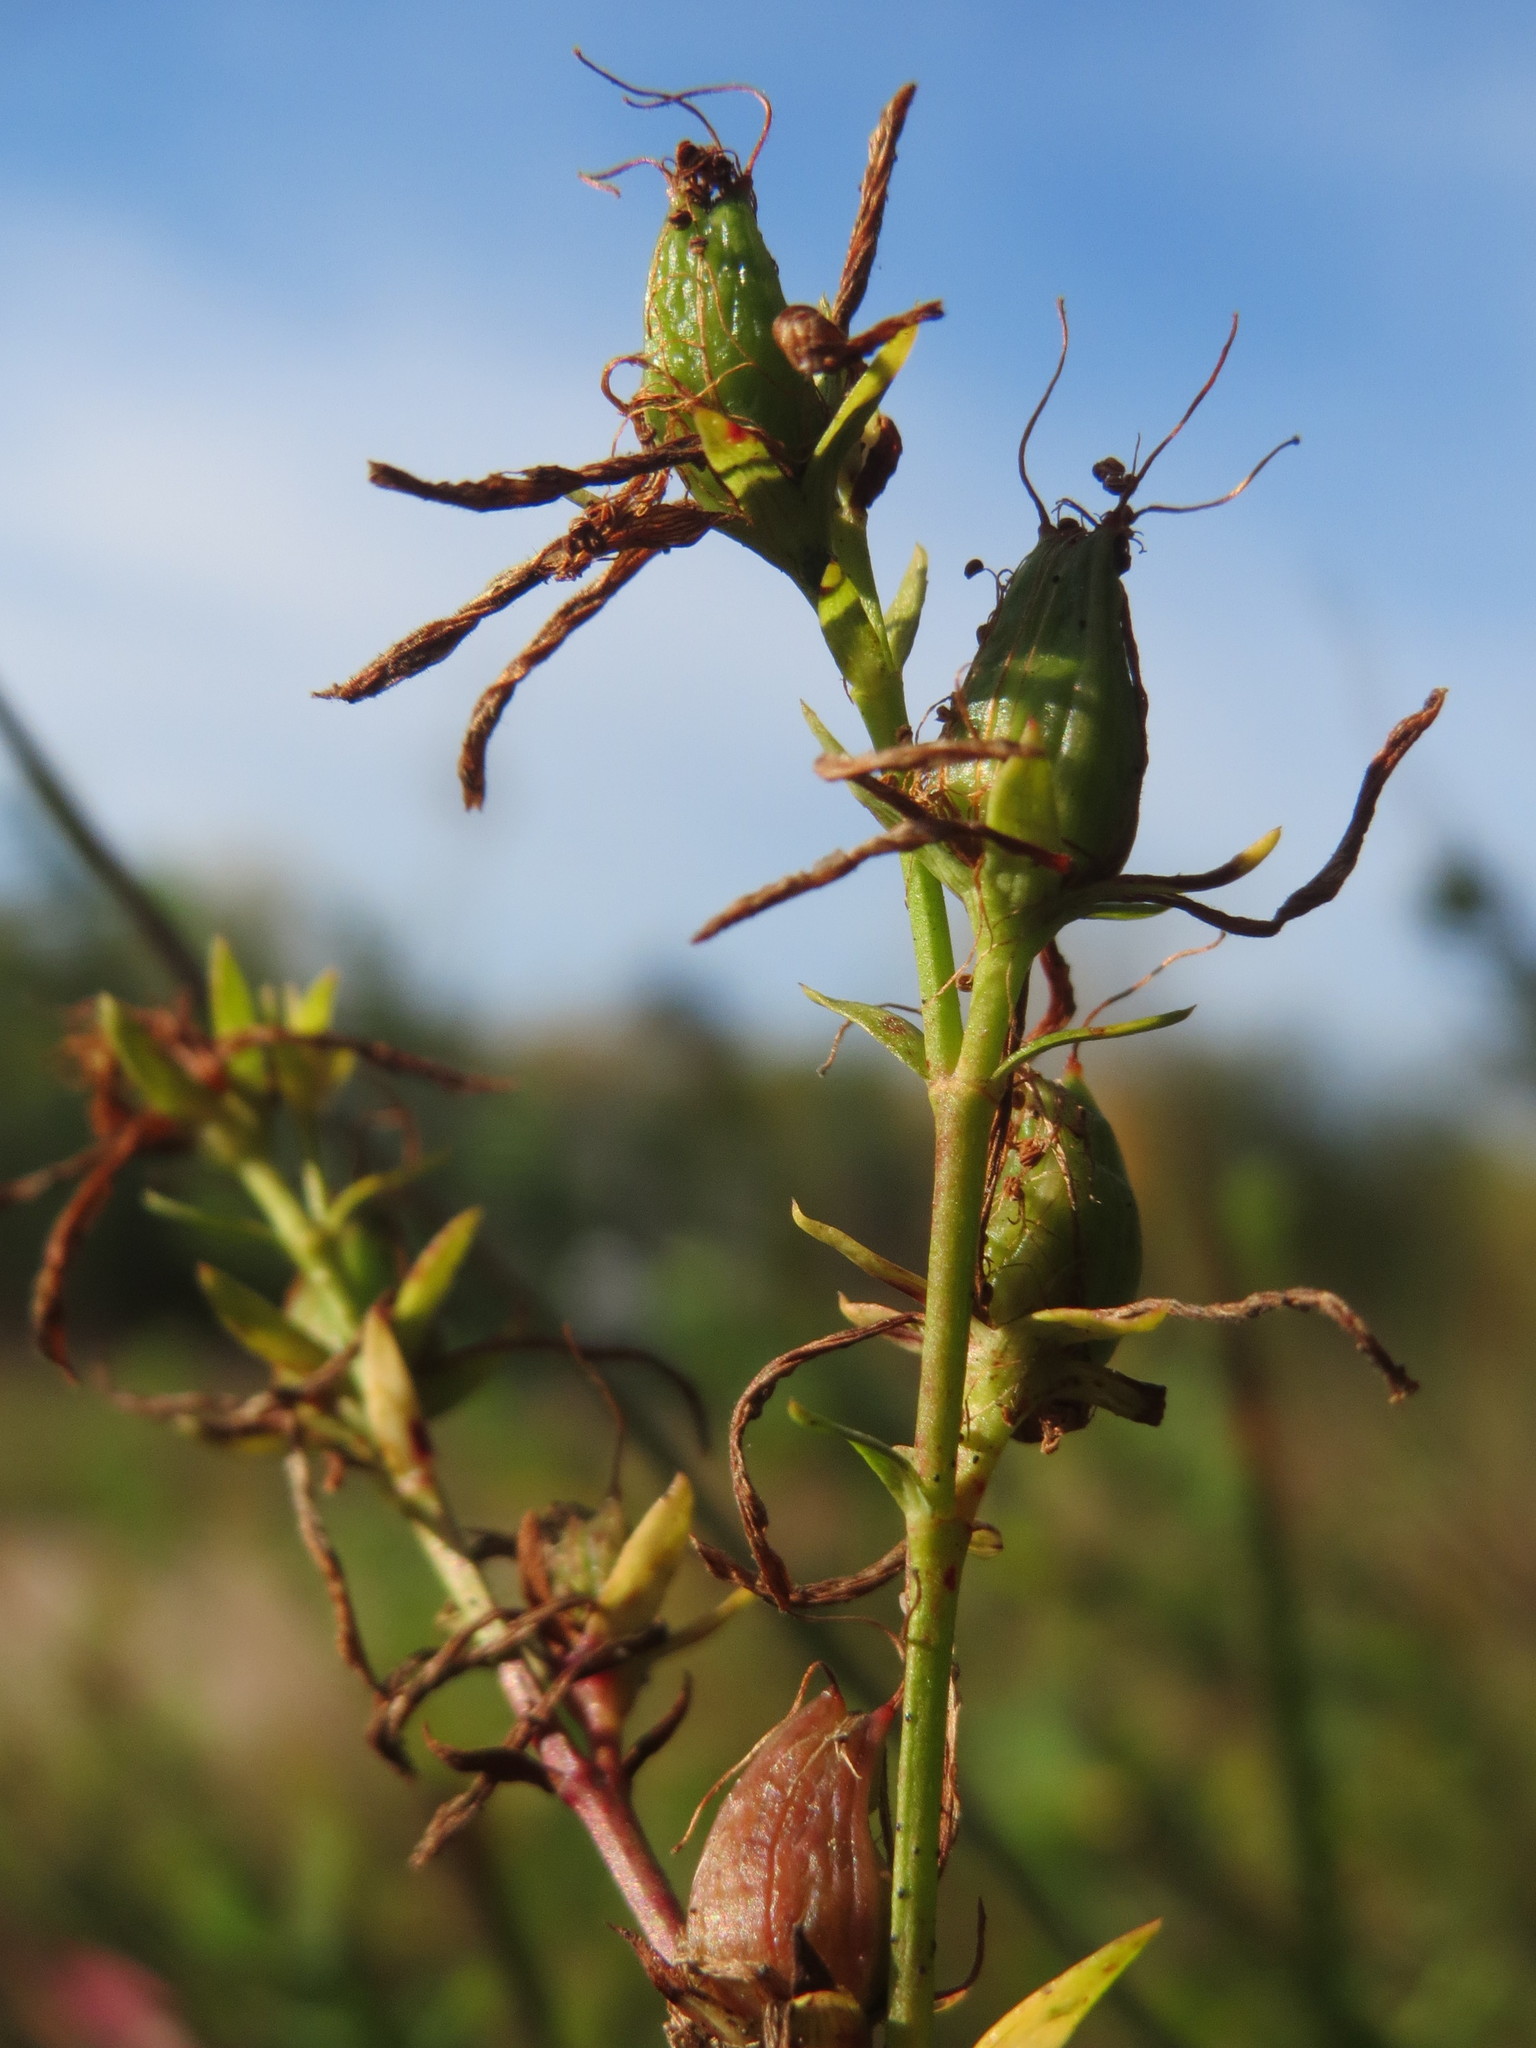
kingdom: Plantae
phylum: Tracheophyta
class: Magnoliopsida
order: Malpighiales
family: Hypericaceae
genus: Hypericum
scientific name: Hypericum perforatum
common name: Common st. johnswort
